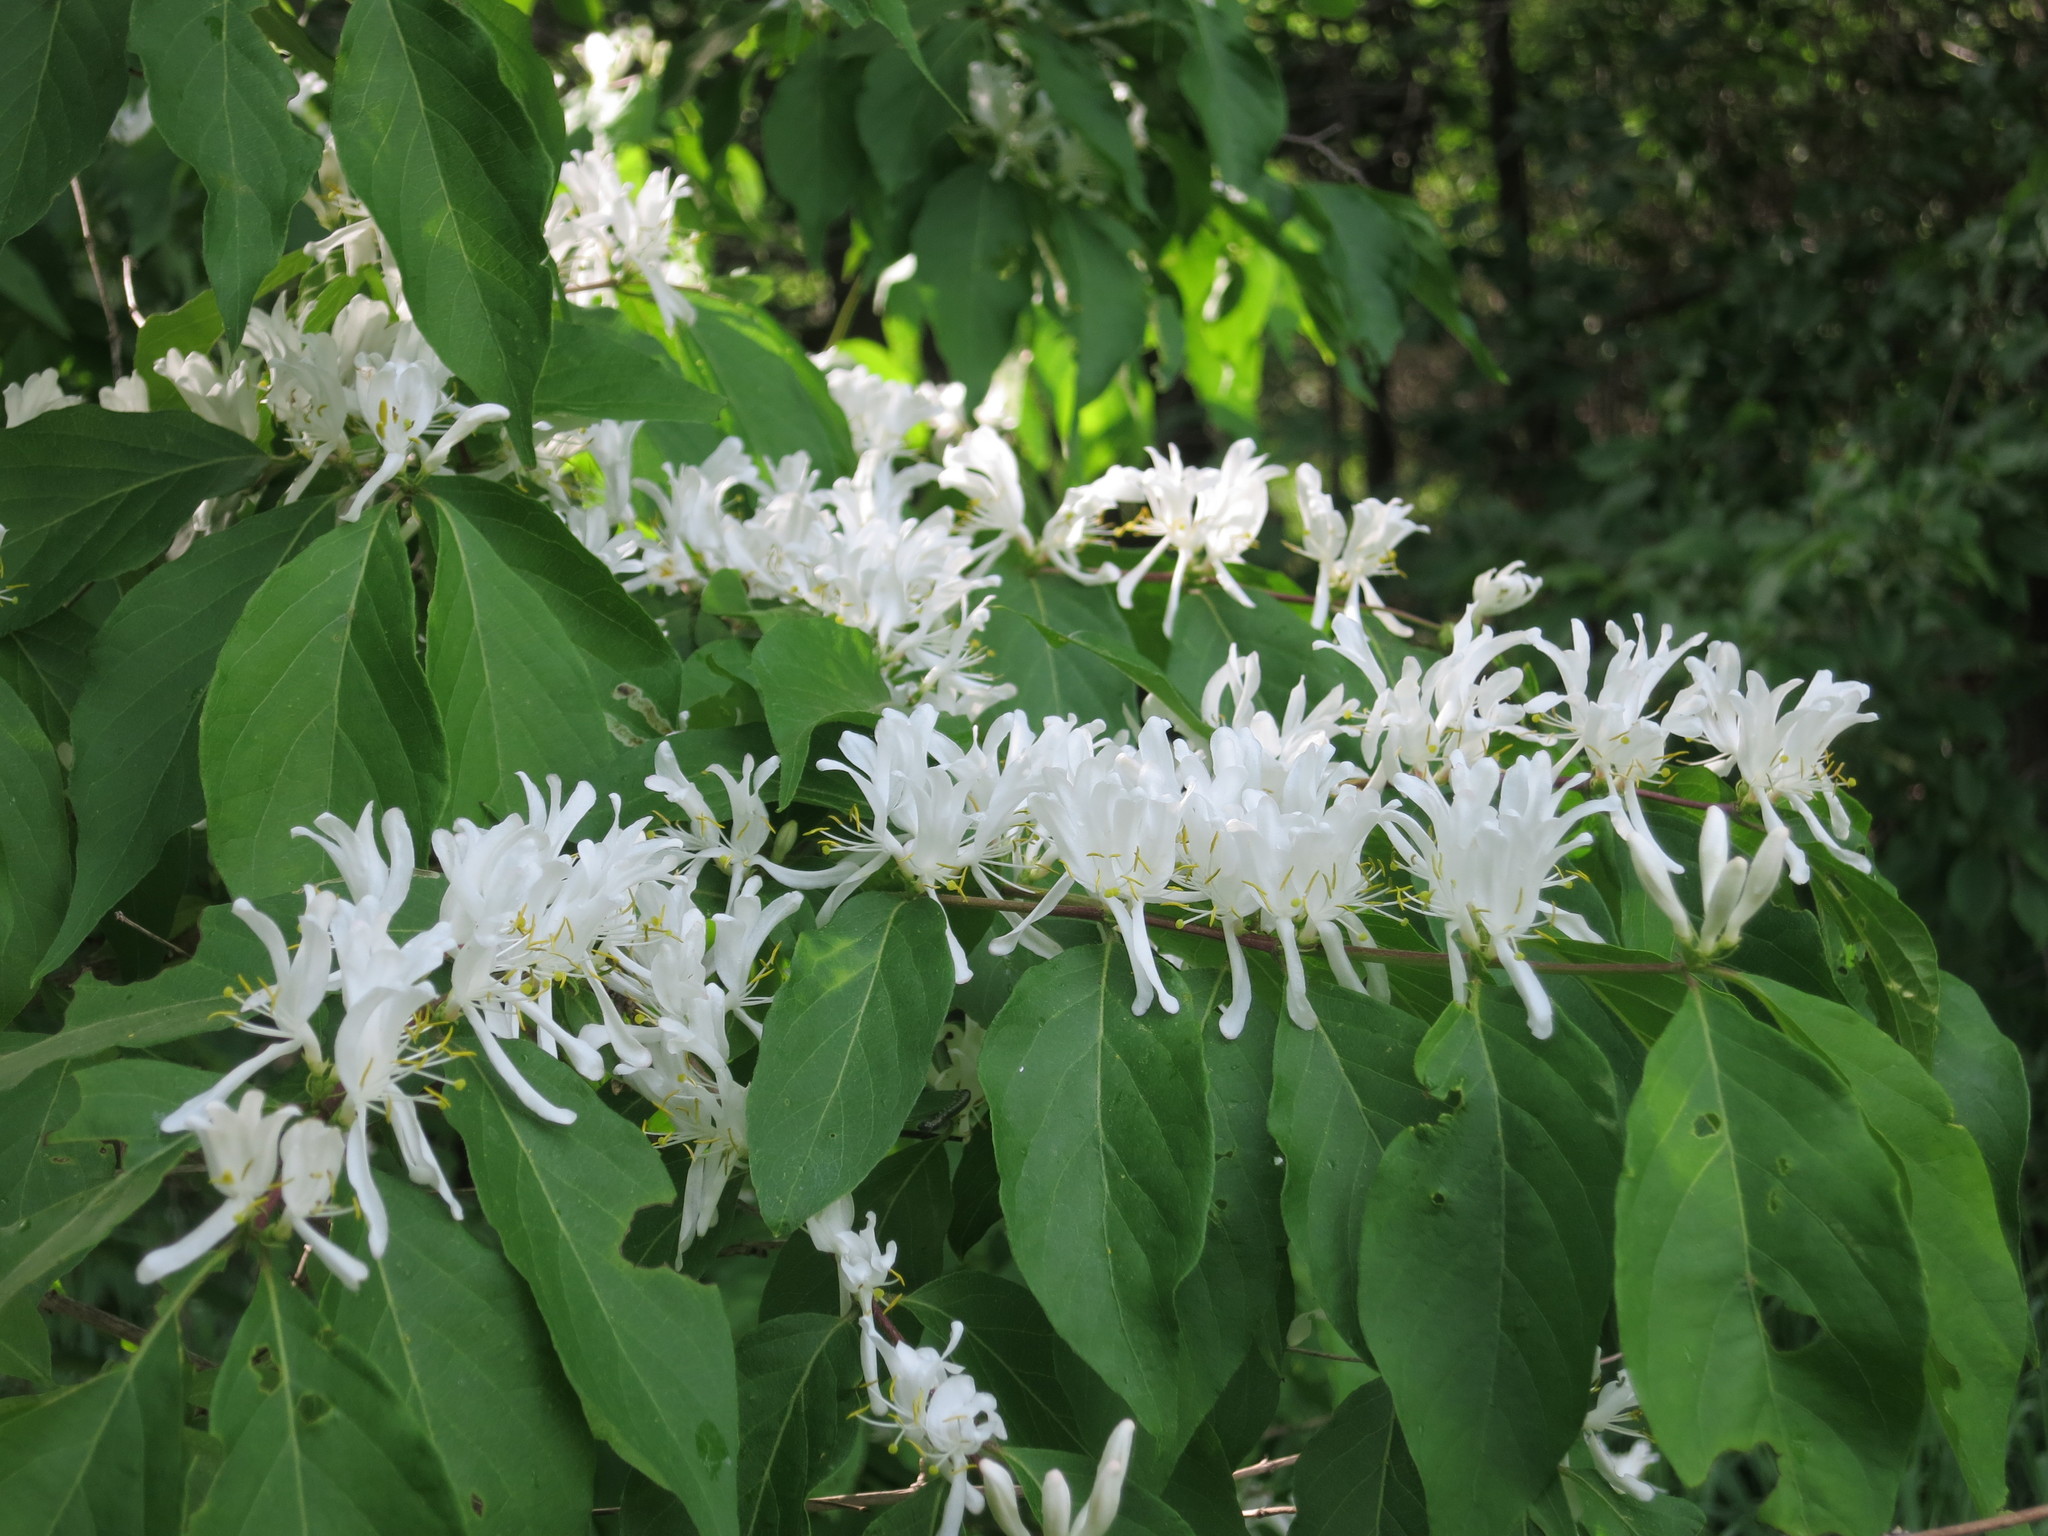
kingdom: Plantae
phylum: Tracheophyta
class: Magnoliopsida
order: Dipsacales
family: Caprifoliaceae
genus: Lonicera
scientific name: Lonicera maackii
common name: Amur honeysuckle
